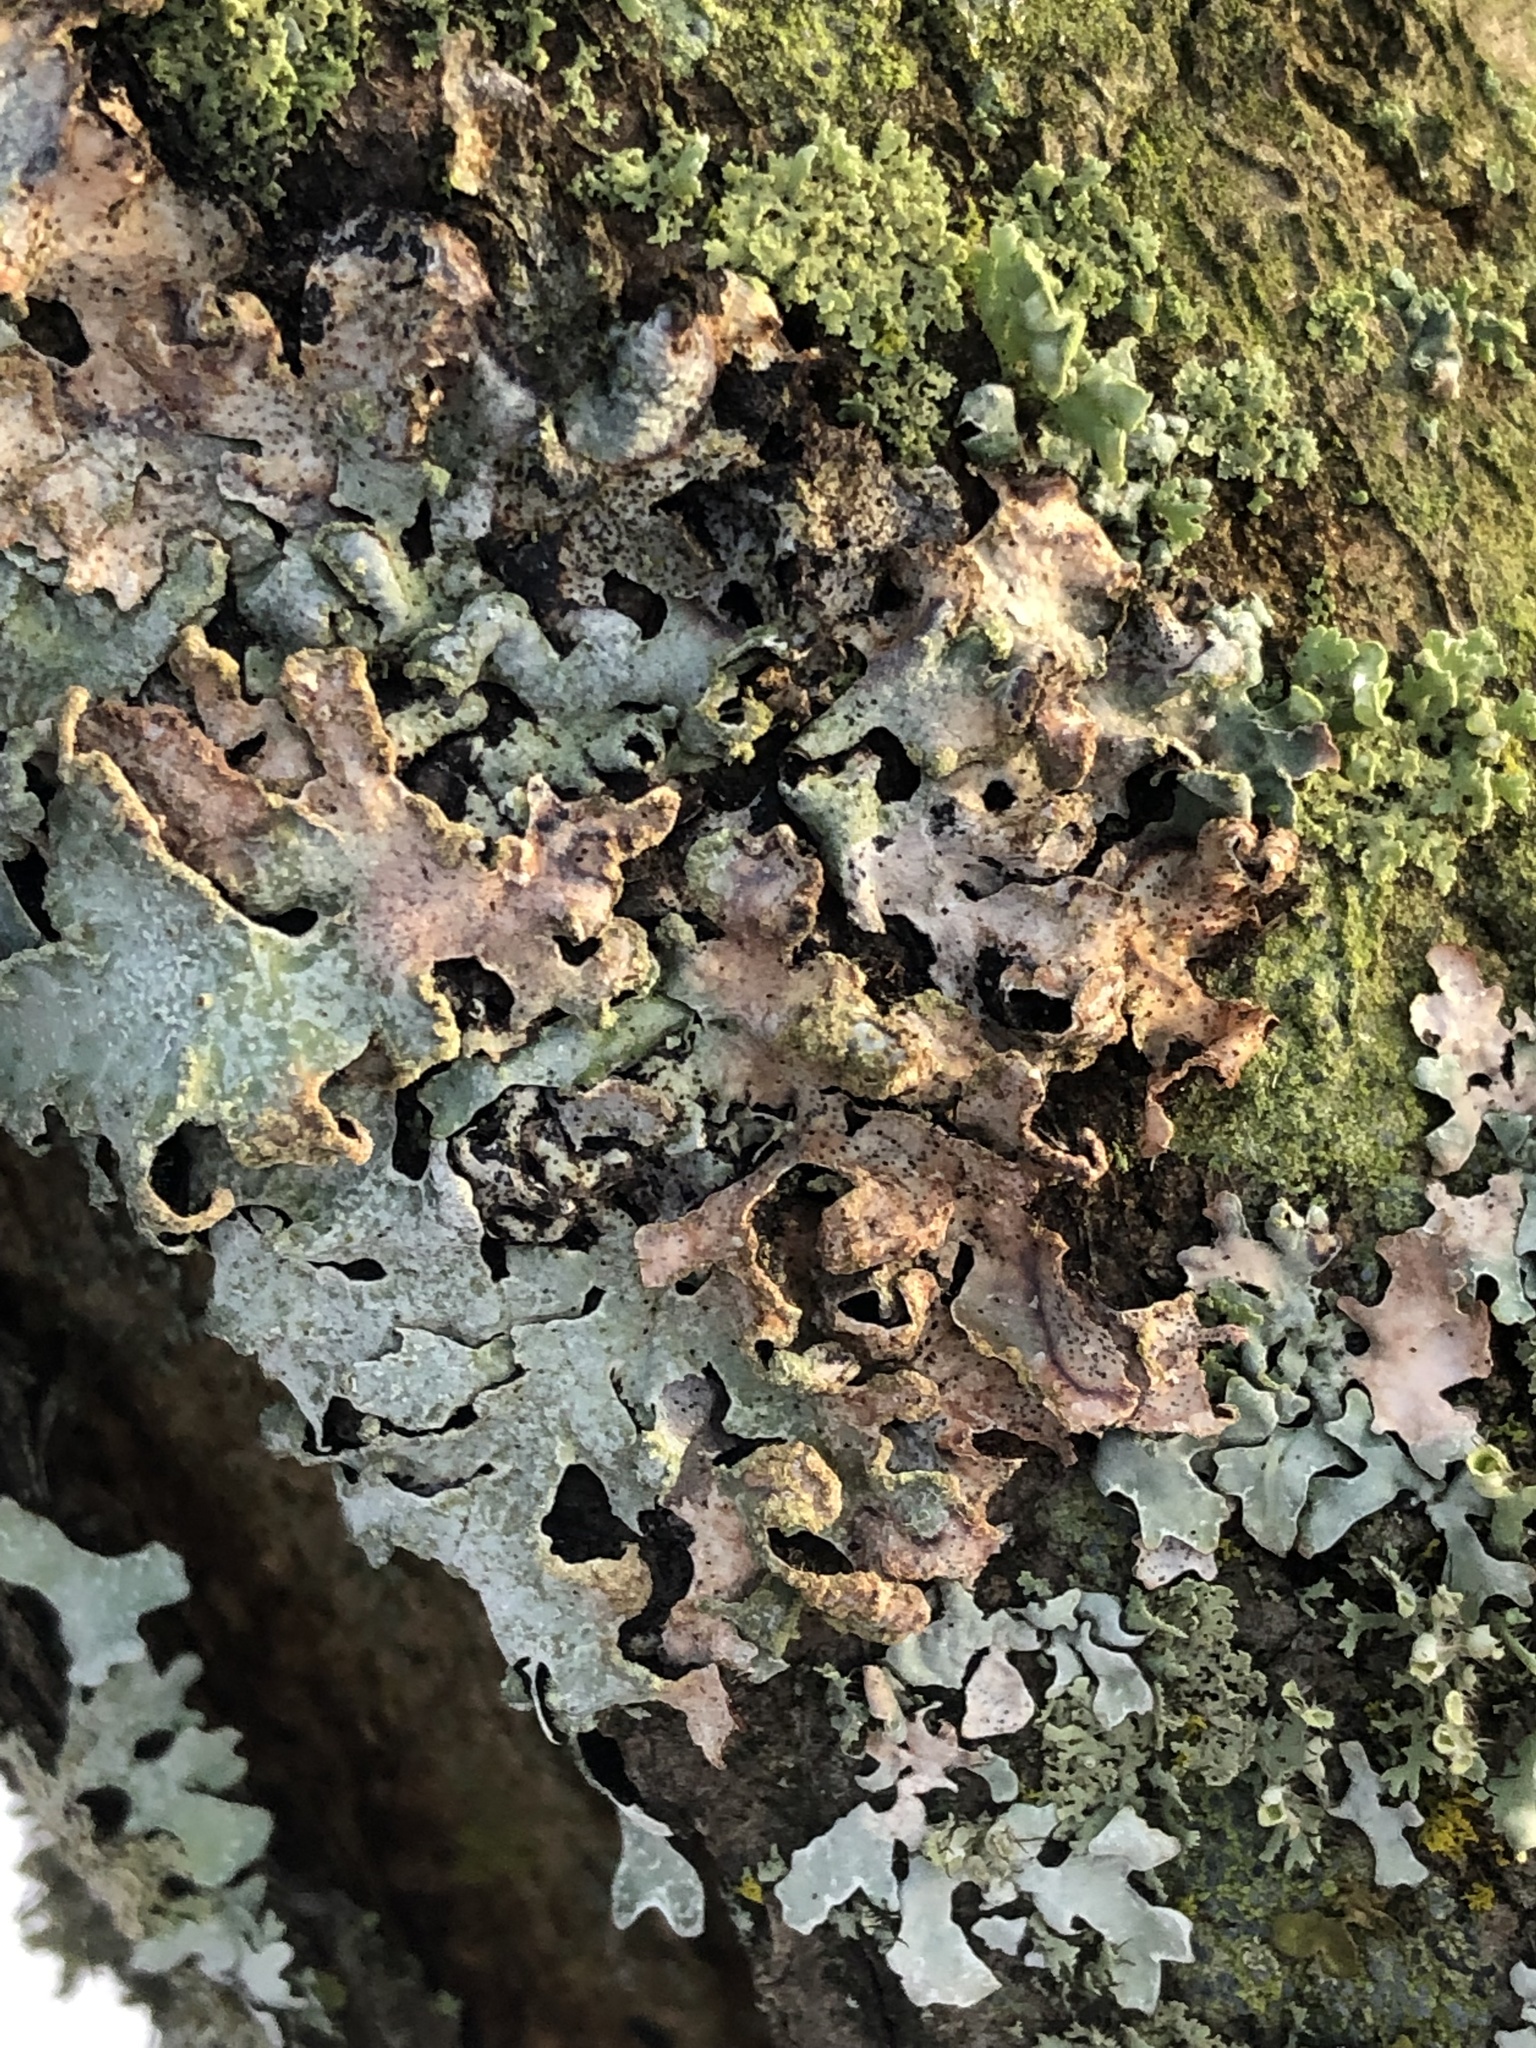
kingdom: Fungi
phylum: Ascomycota
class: Lecanoromycetes
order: Lecanorales
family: Parmeliaceae
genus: Parmelia
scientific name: Parmelia sulcata
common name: Netted shield lichen
